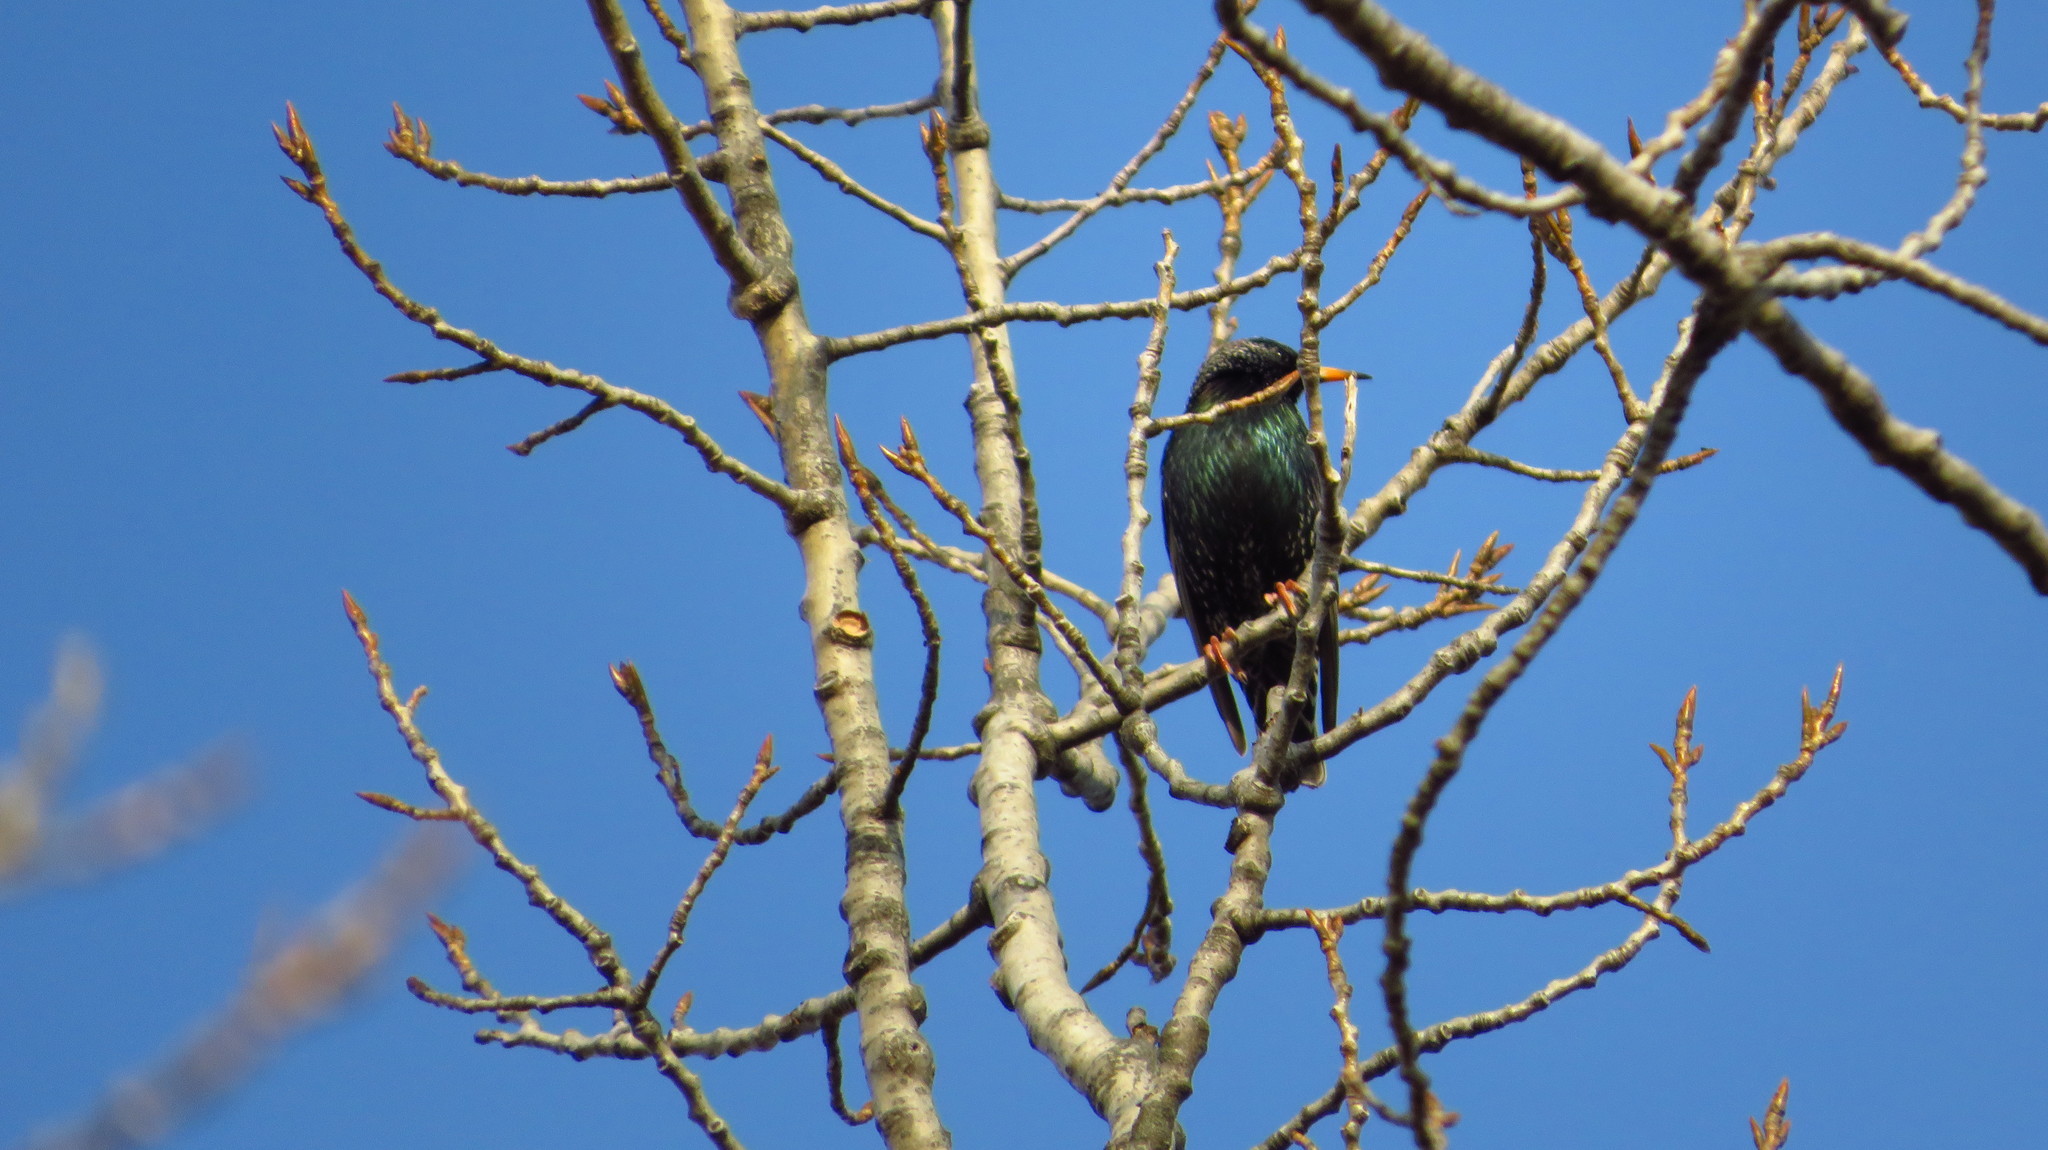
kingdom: Animalia
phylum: Chordata
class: Aves
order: Passeriformes
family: Sturnidae
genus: Sturnus
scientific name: Sturnus vulgaris
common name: Common starling
